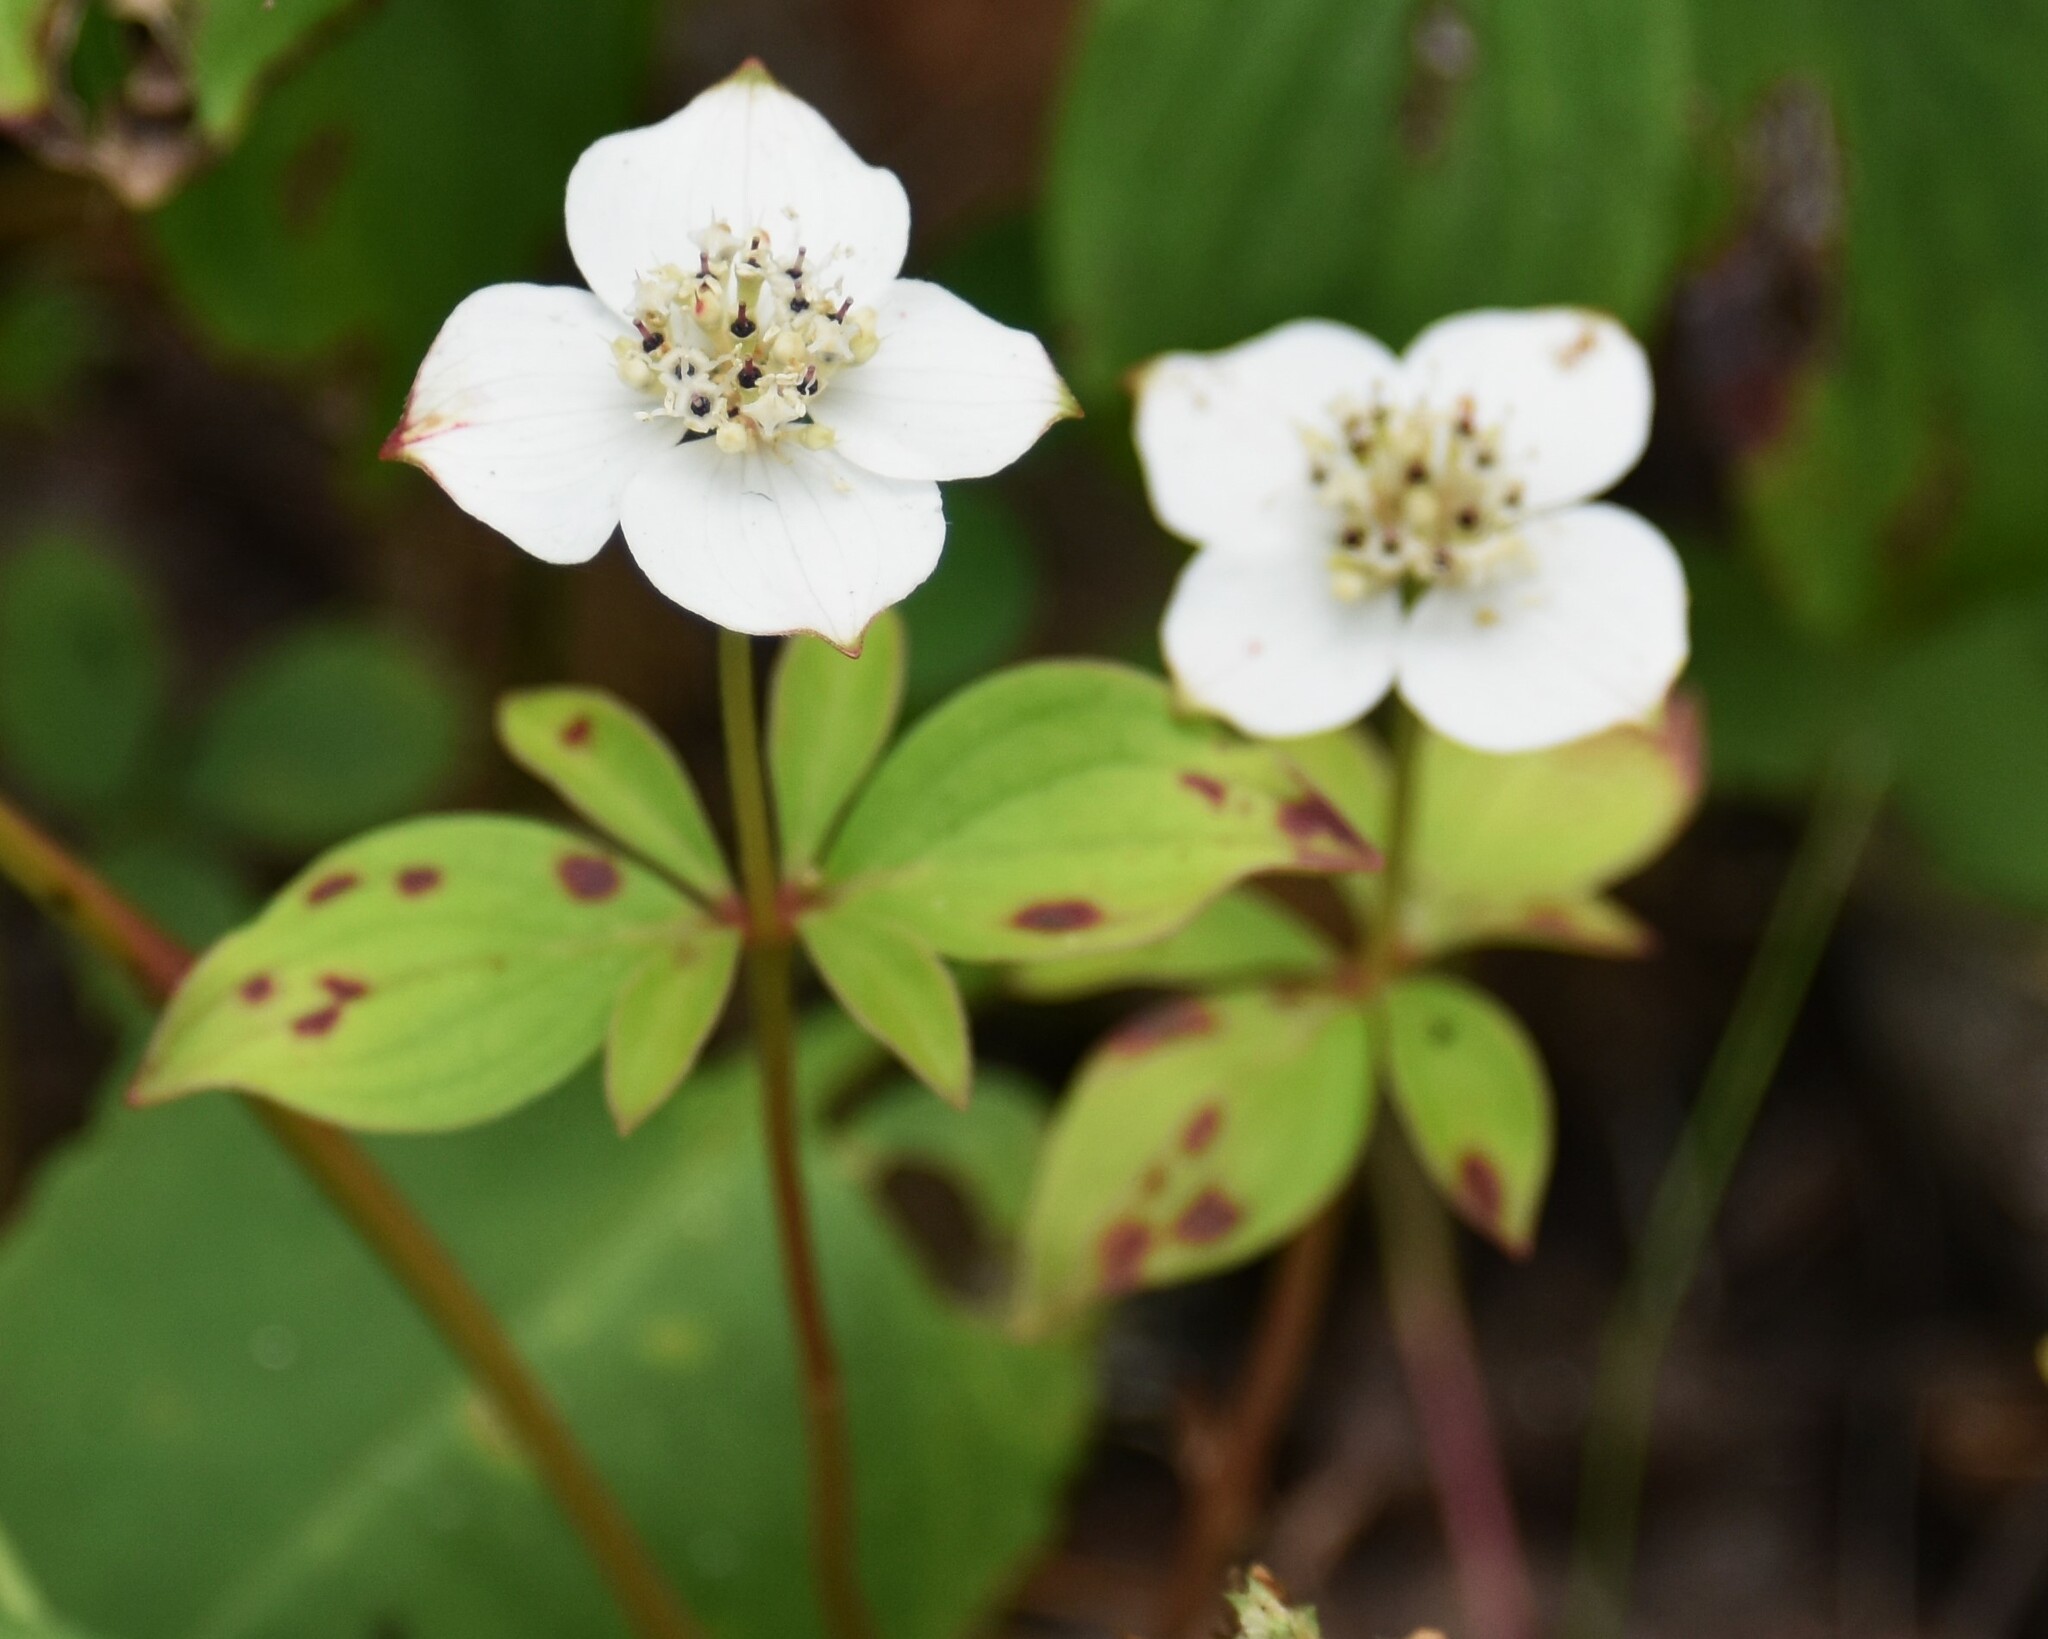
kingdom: Plantae
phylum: Tracheophyta
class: Magnoliopsida
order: Cornales
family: Cornaceae
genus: Cornus
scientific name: Cornus canadensis
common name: Creeping dogwood
